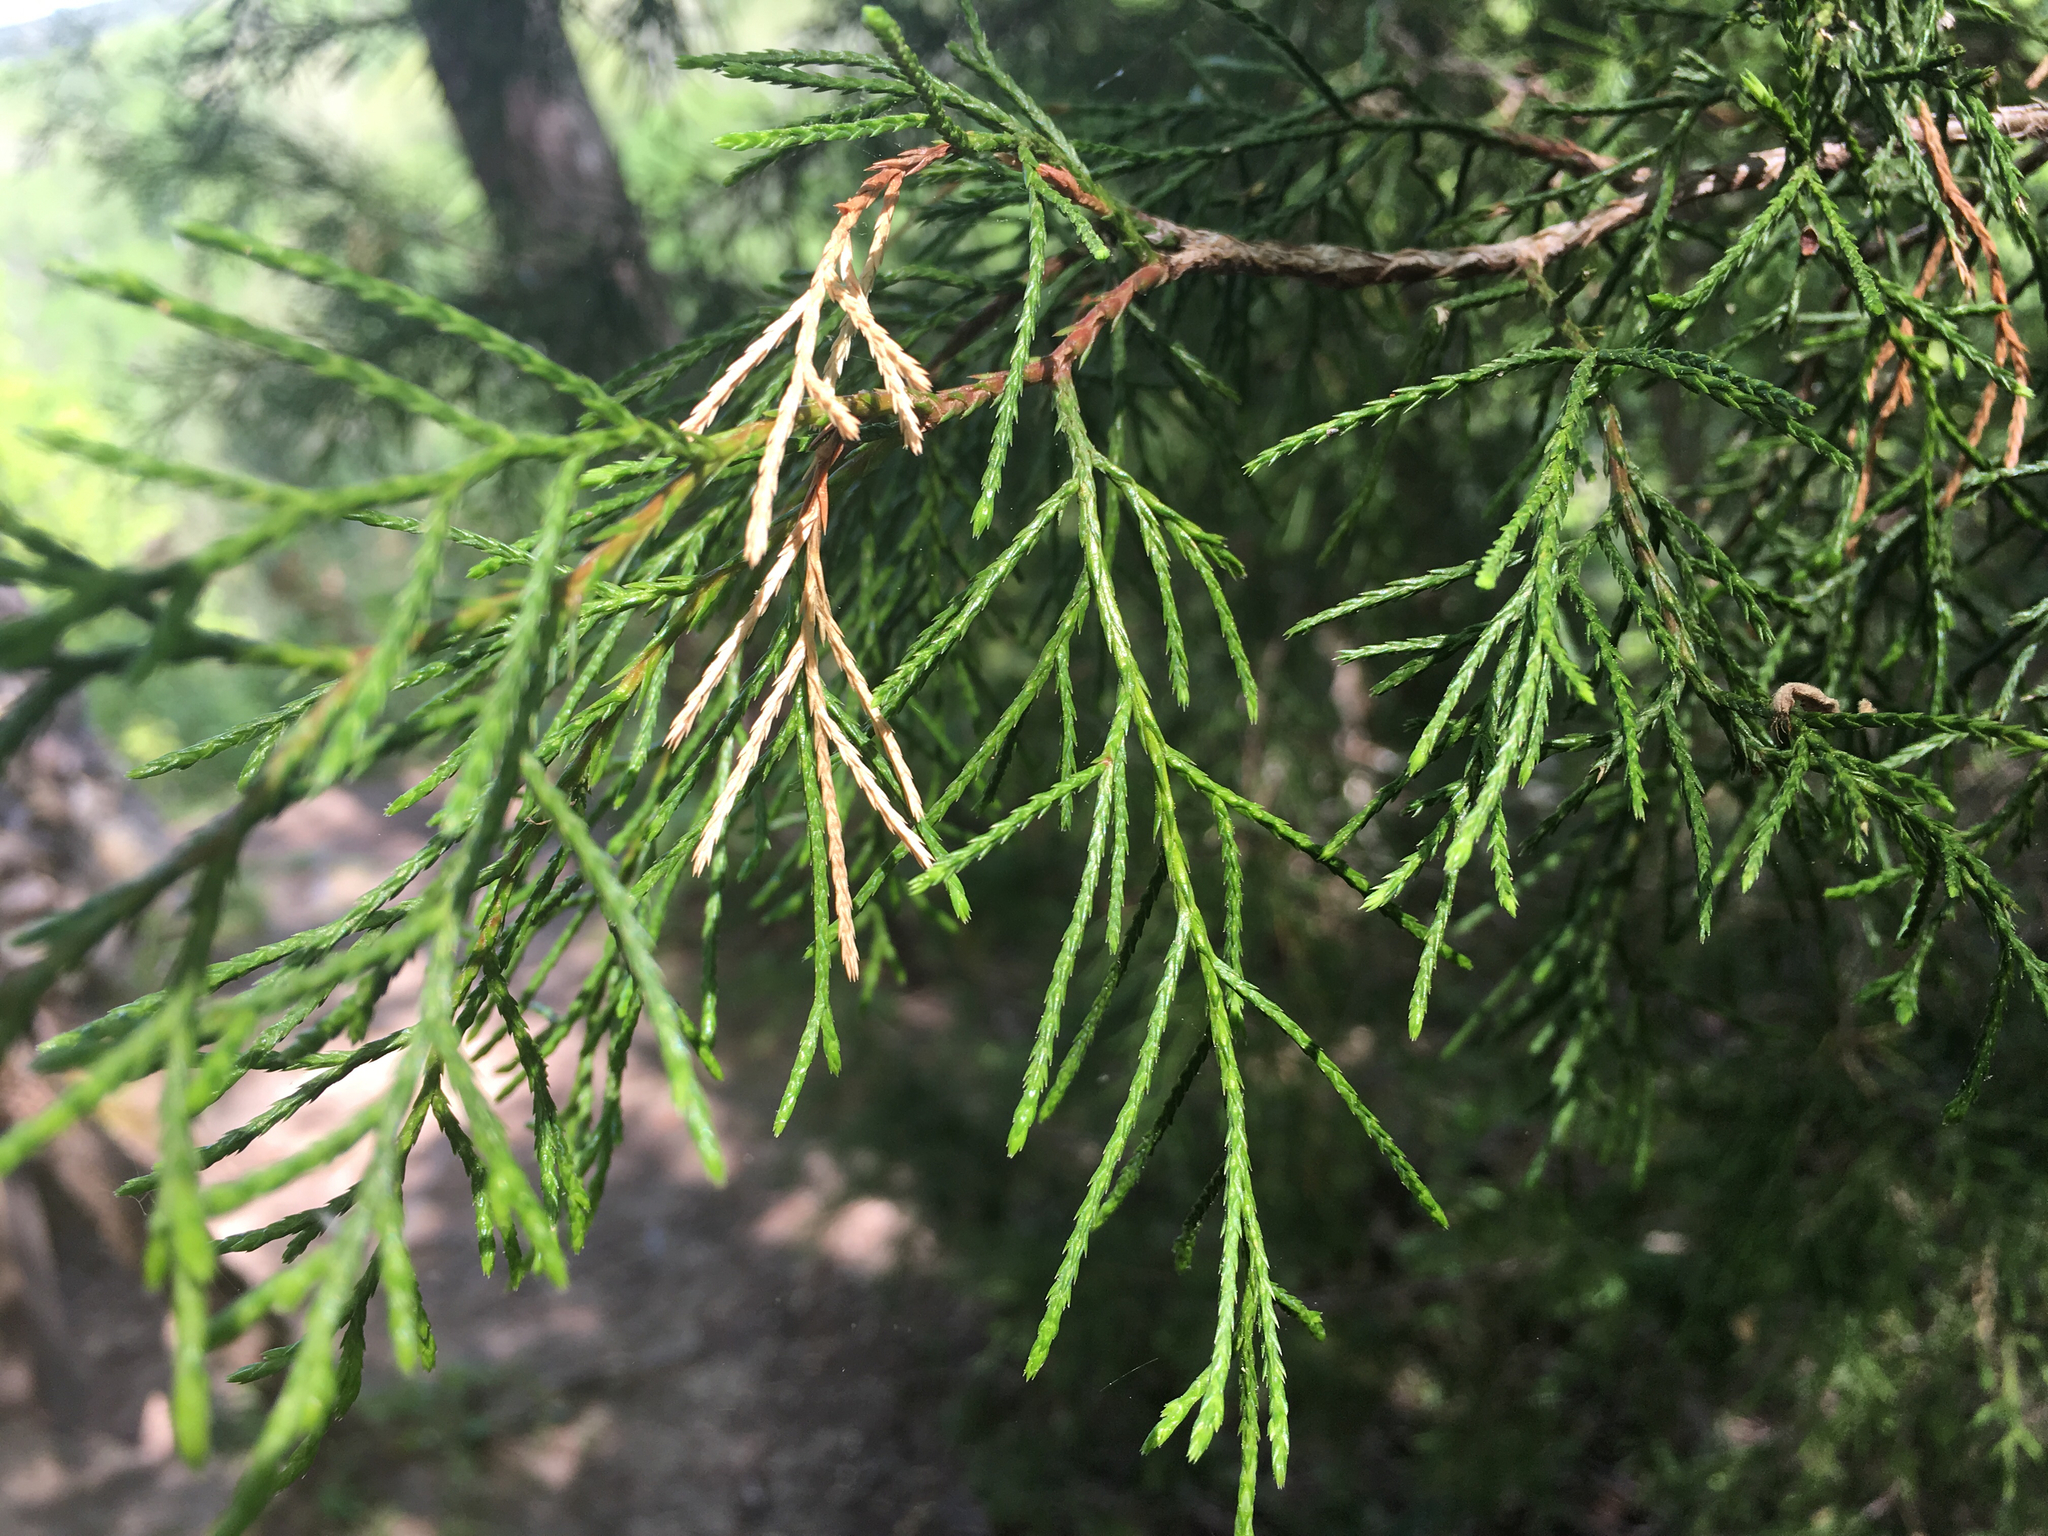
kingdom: Plantae
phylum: Tracheophyta
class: Pinopsida
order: Pinales
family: Cupressaceae
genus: Juniperus
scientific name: Juniperus virginiana
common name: Red juniper
